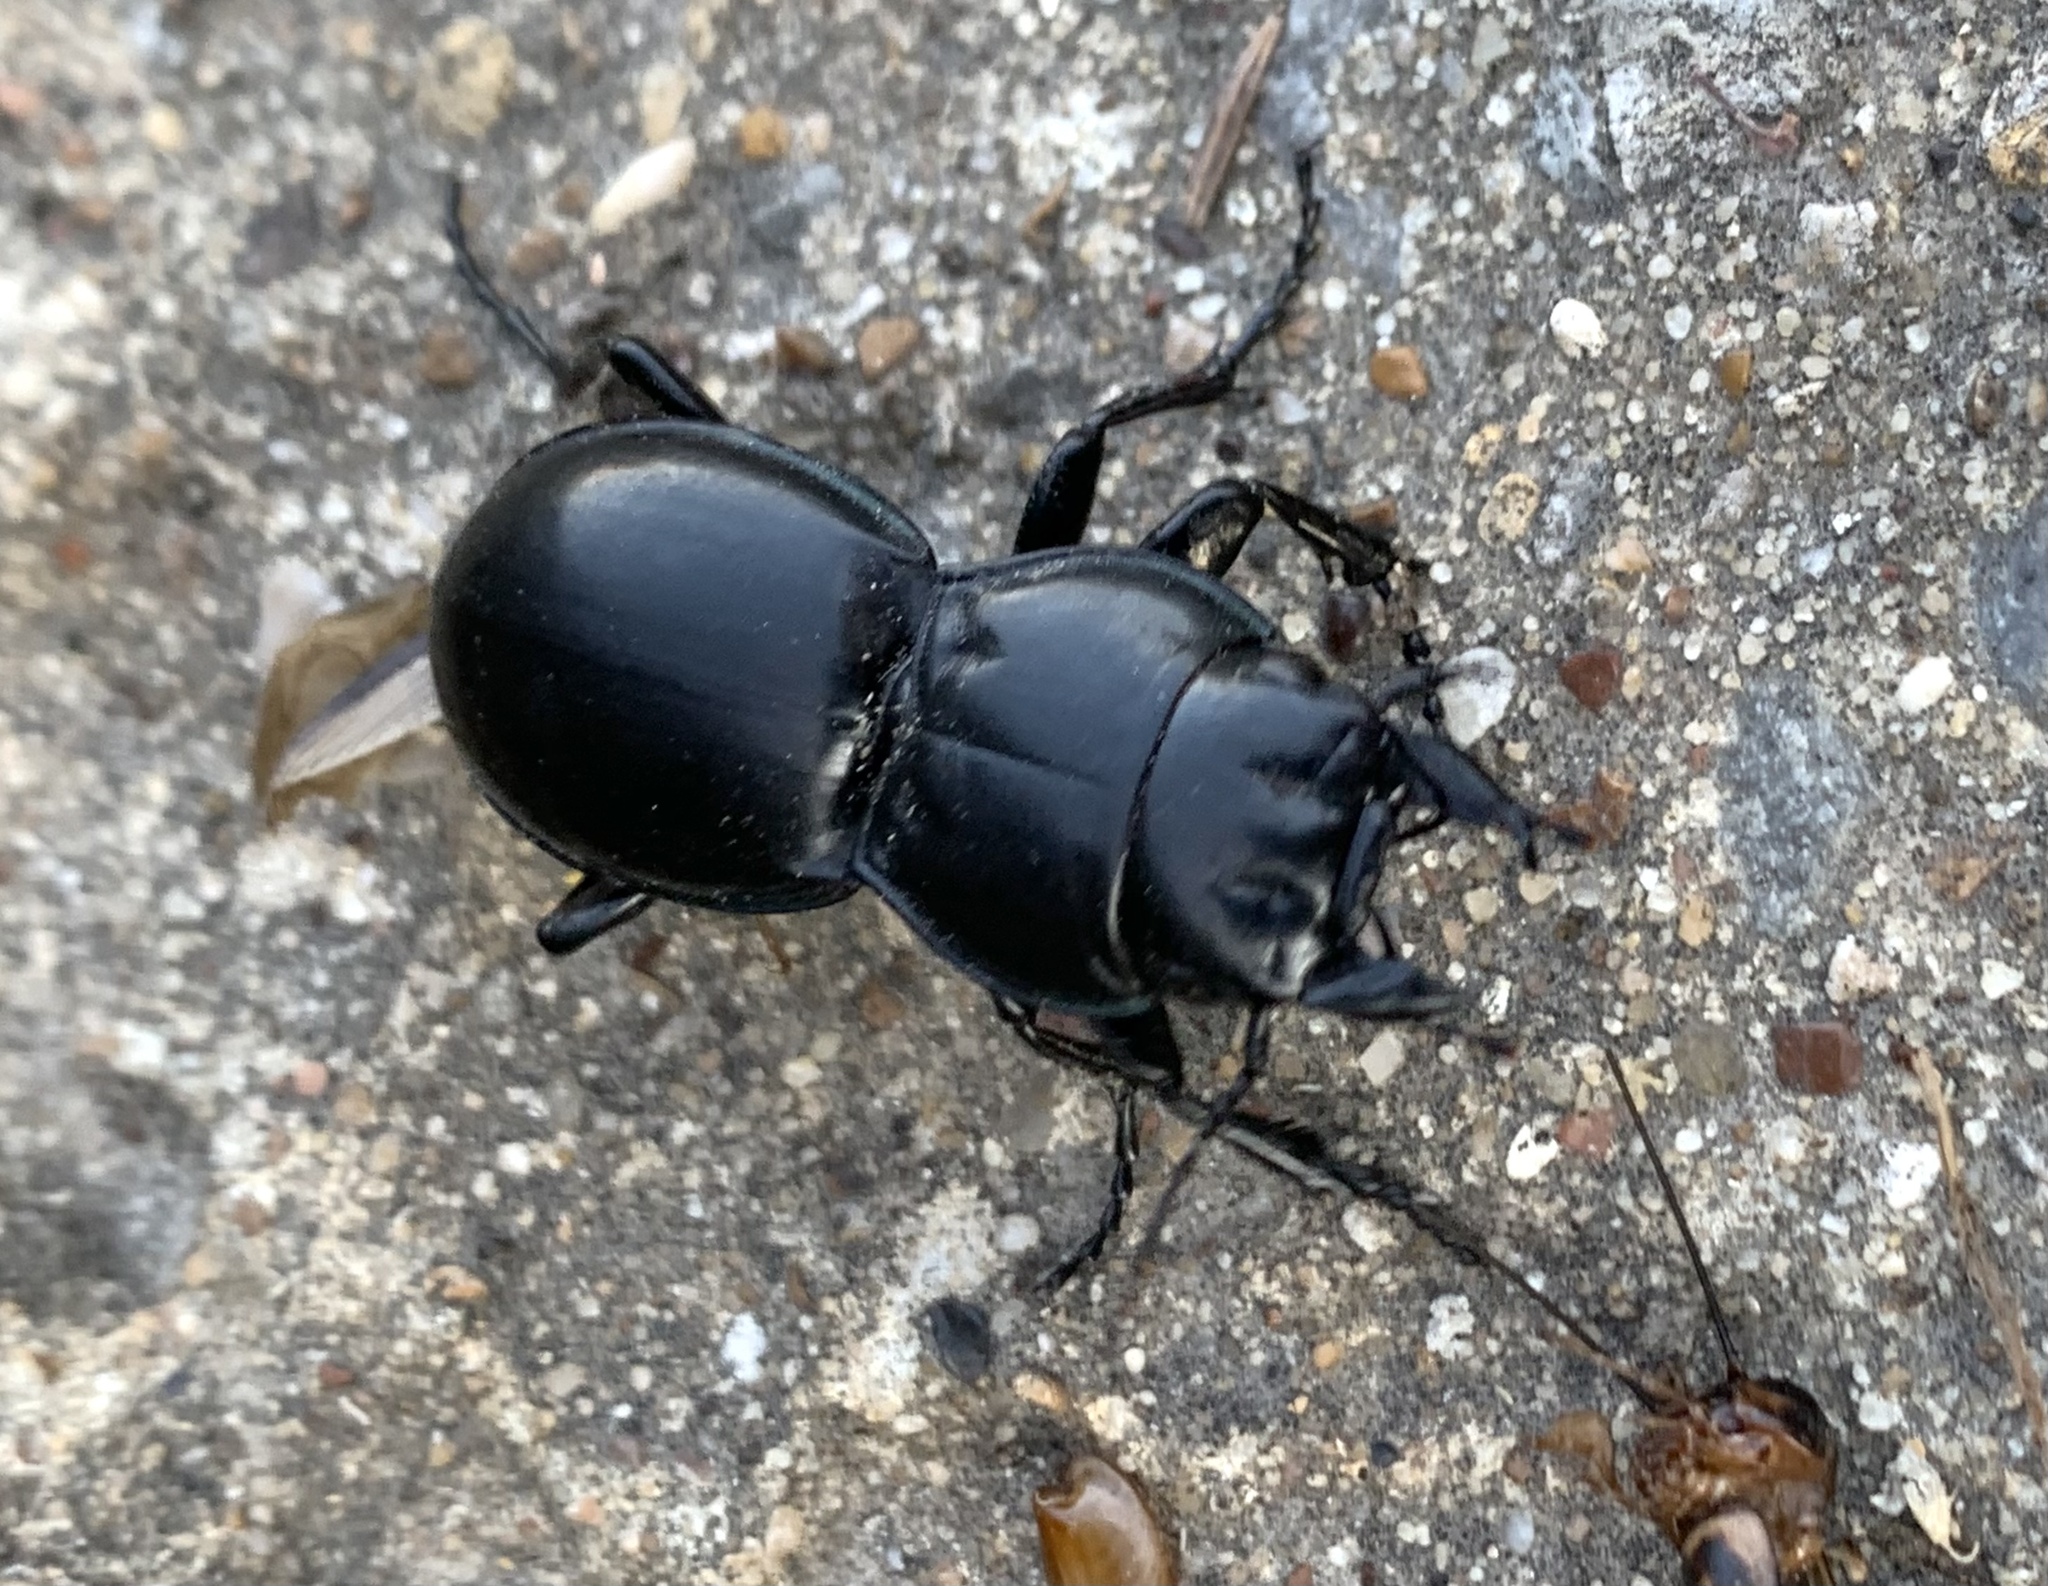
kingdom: Animalia
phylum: Arthropoda
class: Insecta
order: Coleoptera
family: Carabidae
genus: Pasimachus
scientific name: Pasimachus californicus
